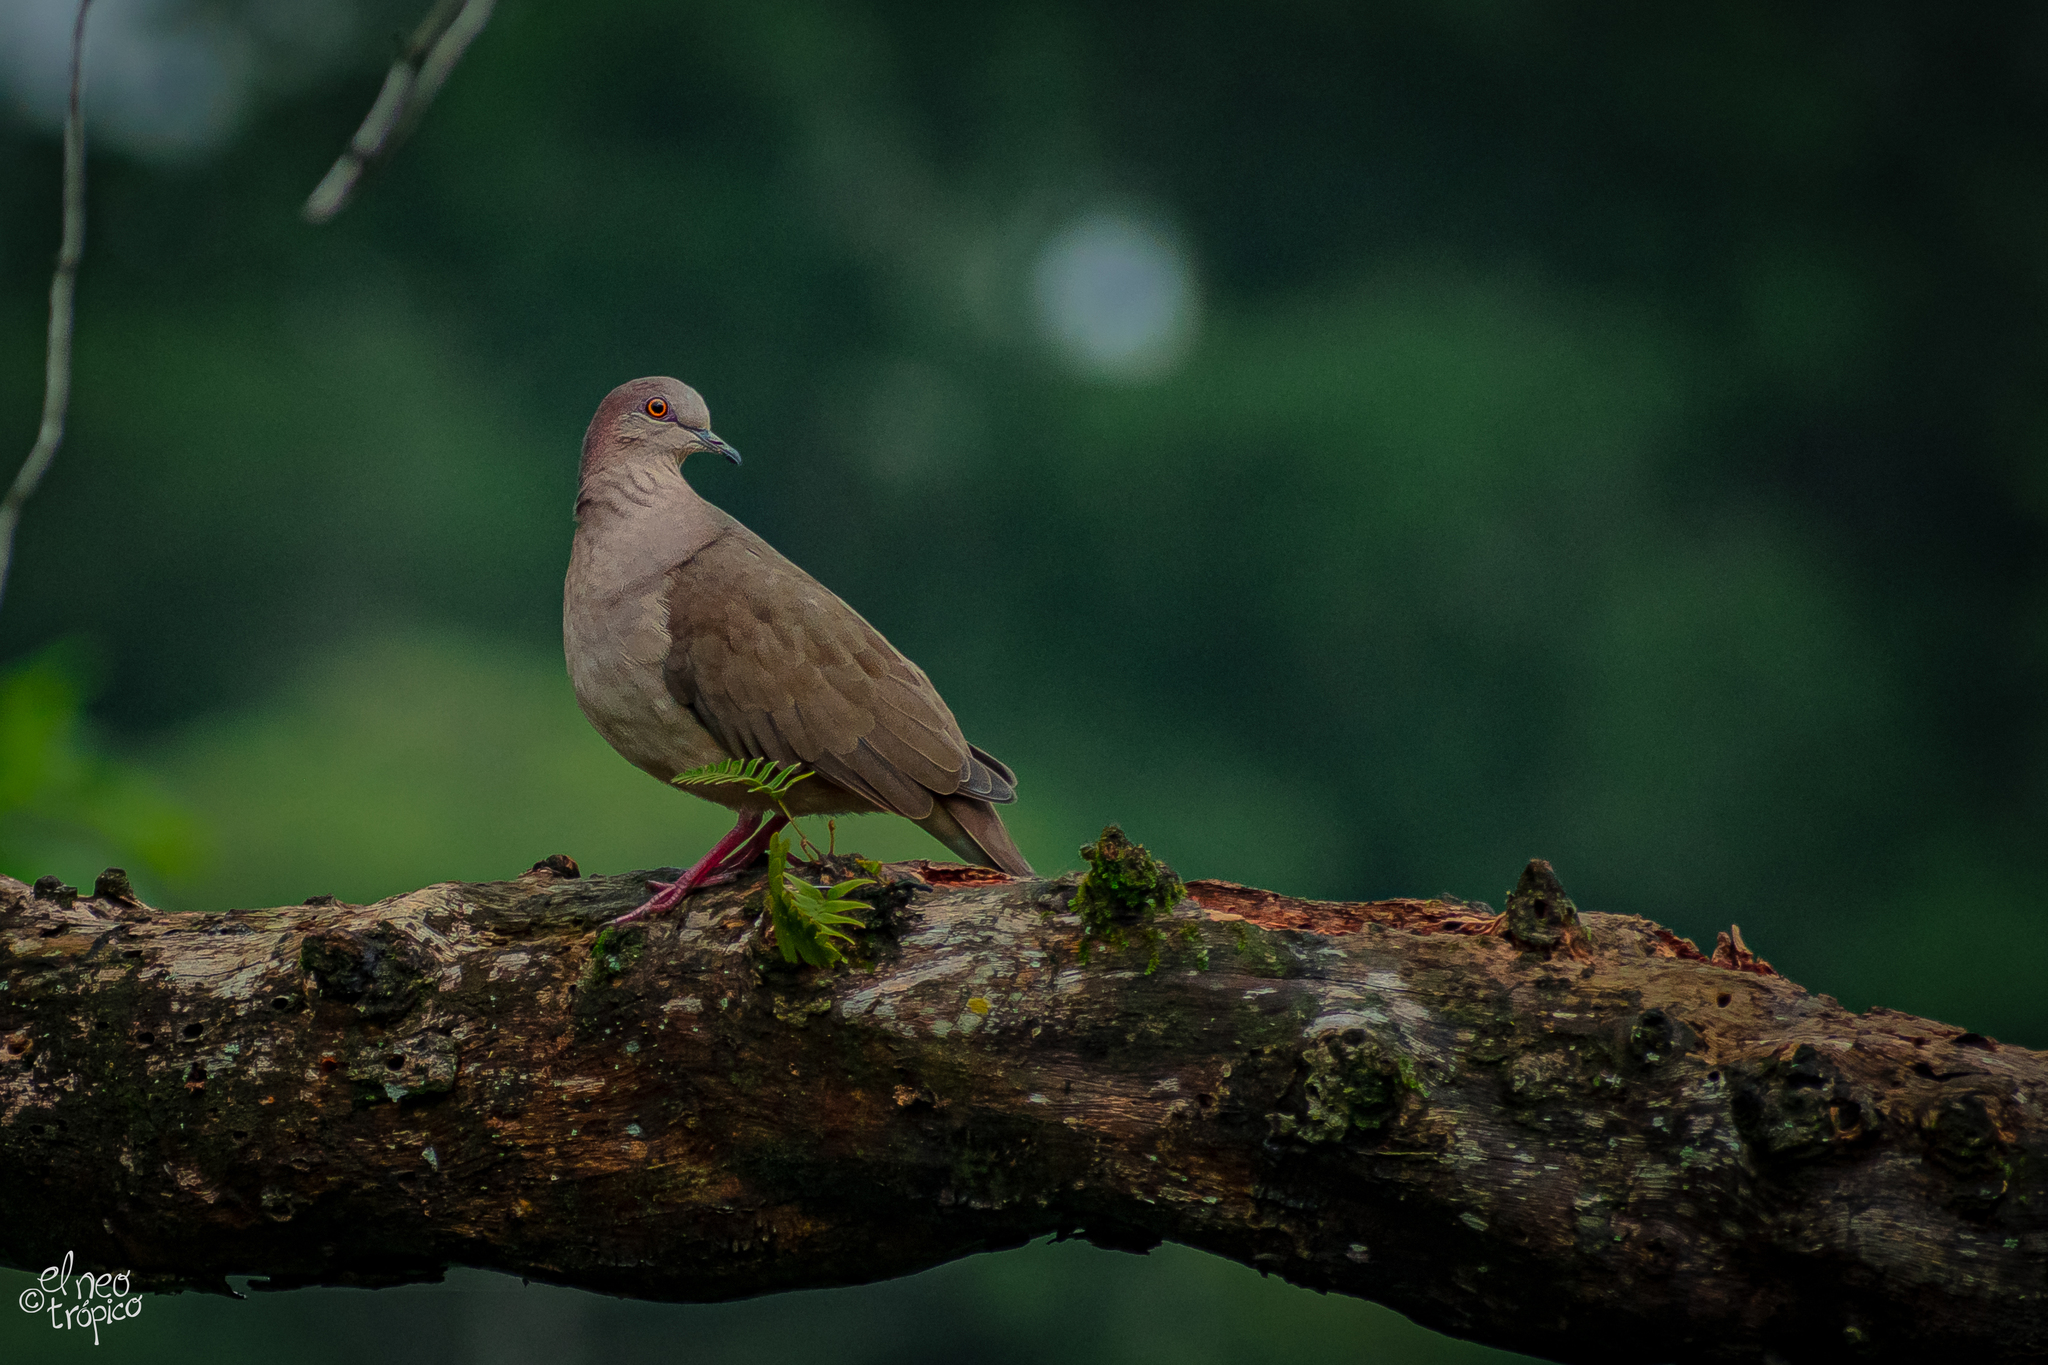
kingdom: Animalia
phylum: Chordata
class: Aves
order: Columbiformes
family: Columbidae
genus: Leptotila
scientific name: Leptotila verreauxi
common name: White-tipped dove
